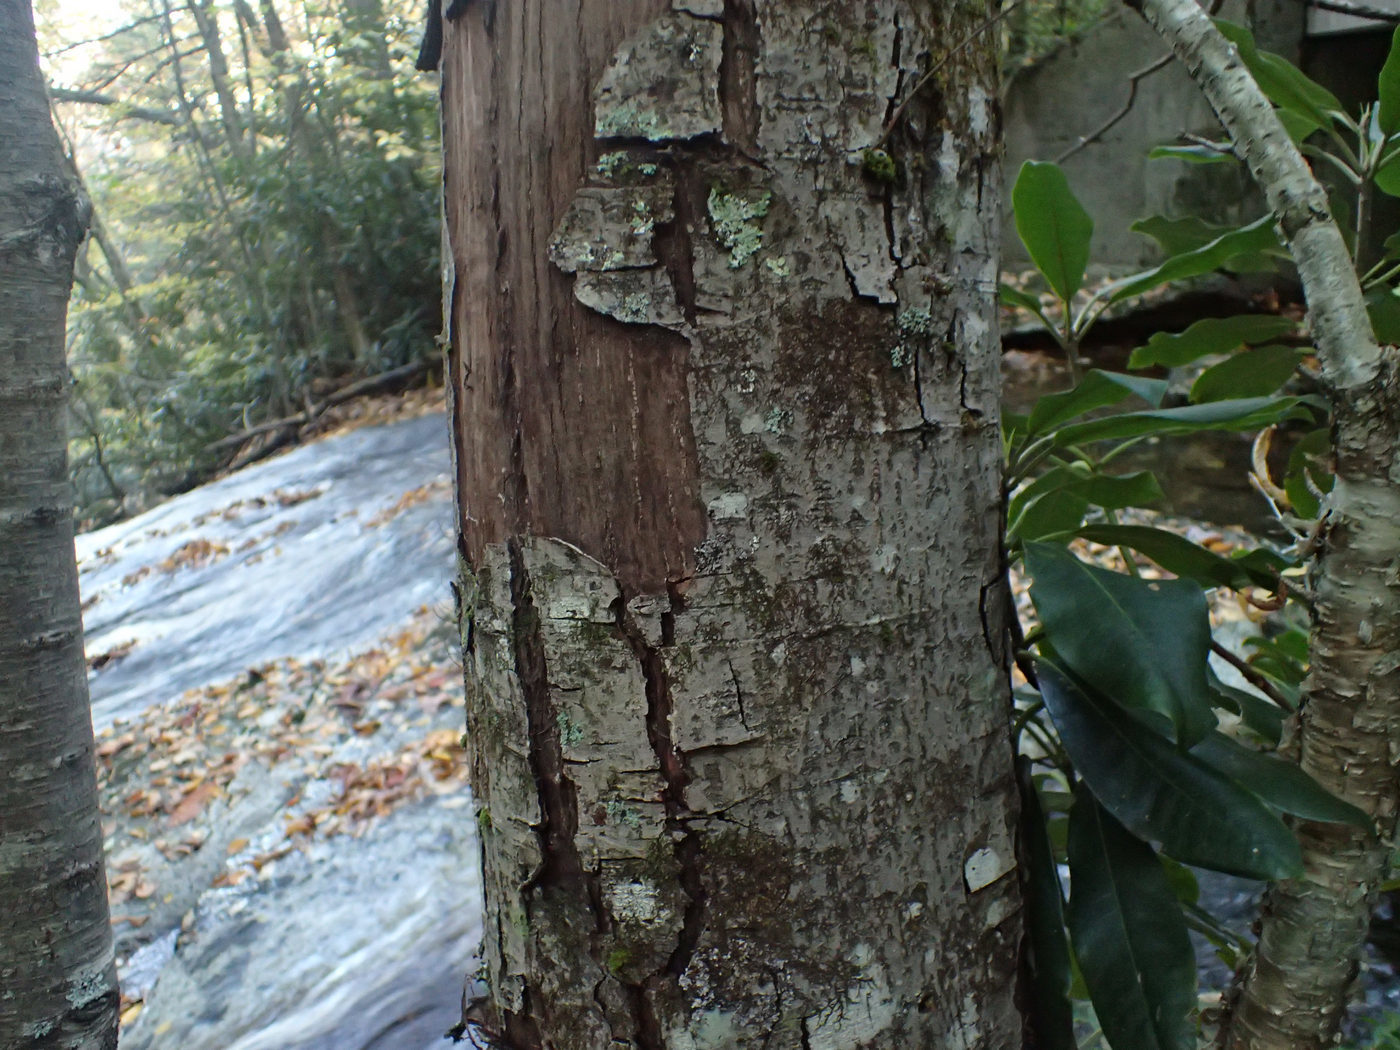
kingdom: Plantae
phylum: Tracheophyta
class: Magnoliopsida
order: Malpighiales
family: Salicaceae
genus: Salix
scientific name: Salix caprea
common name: Goat willow
